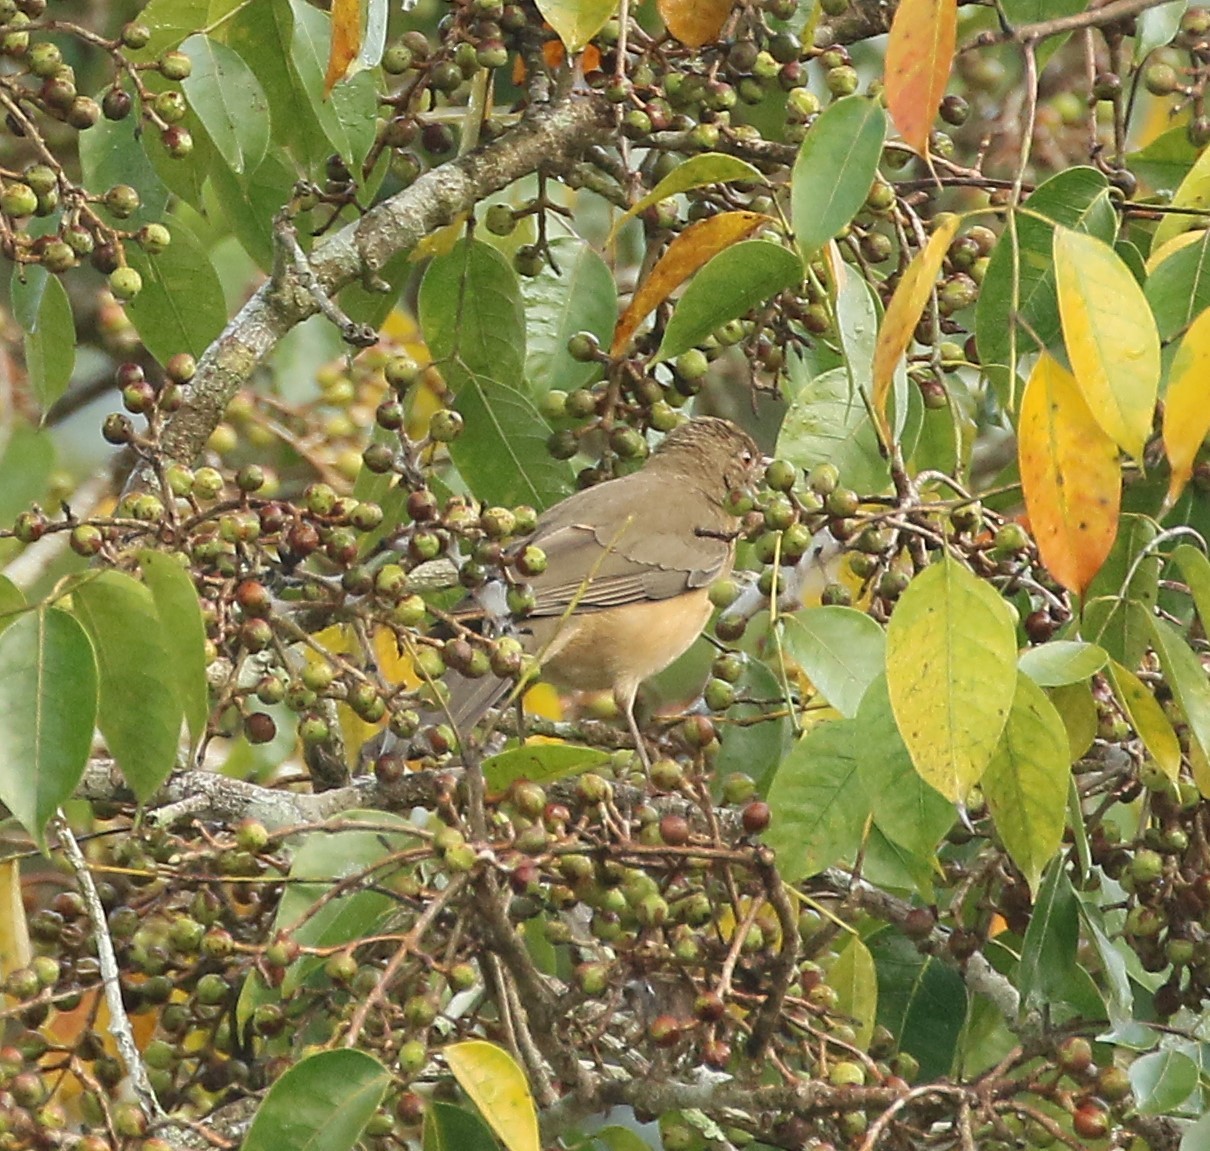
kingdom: Animalia
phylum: Chordata
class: Aves
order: Passeriformes
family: Turdidae
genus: Turdus
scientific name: Turdus grayi
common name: Clay-colored thrush
